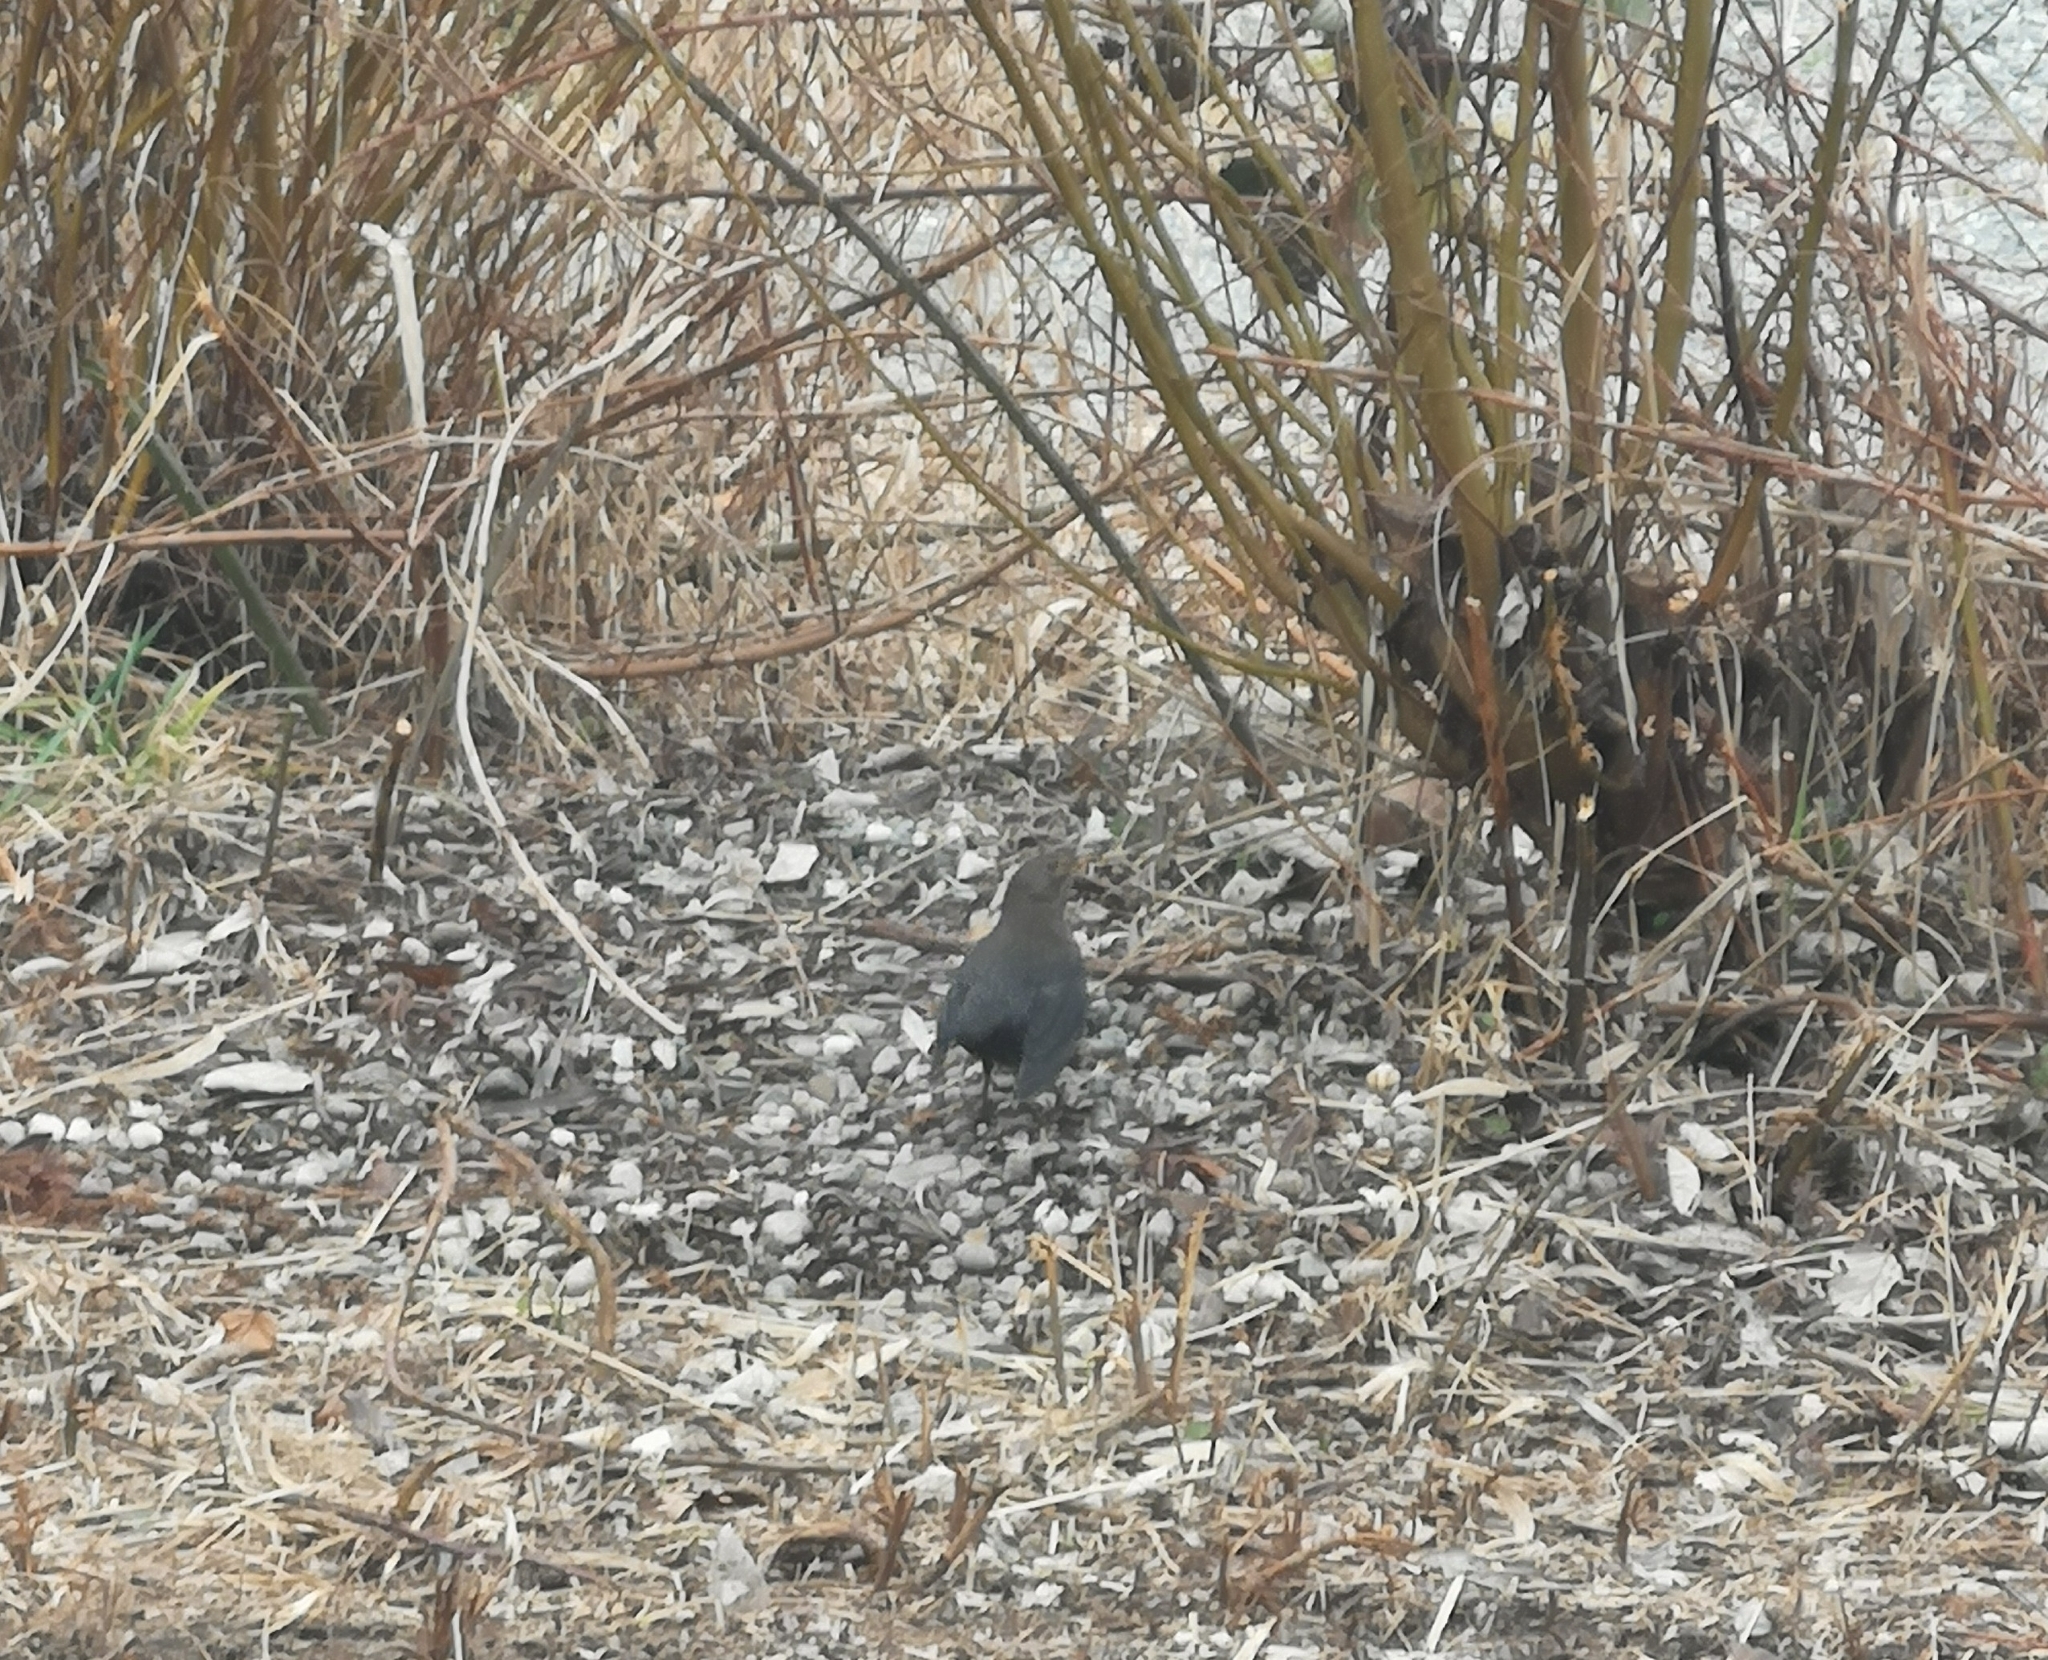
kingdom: Animalia
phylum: Chordata
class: Aves
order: Passeriformes
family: Turdidae
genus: Turdus
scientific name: Turdus merula
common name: Common blackbird
